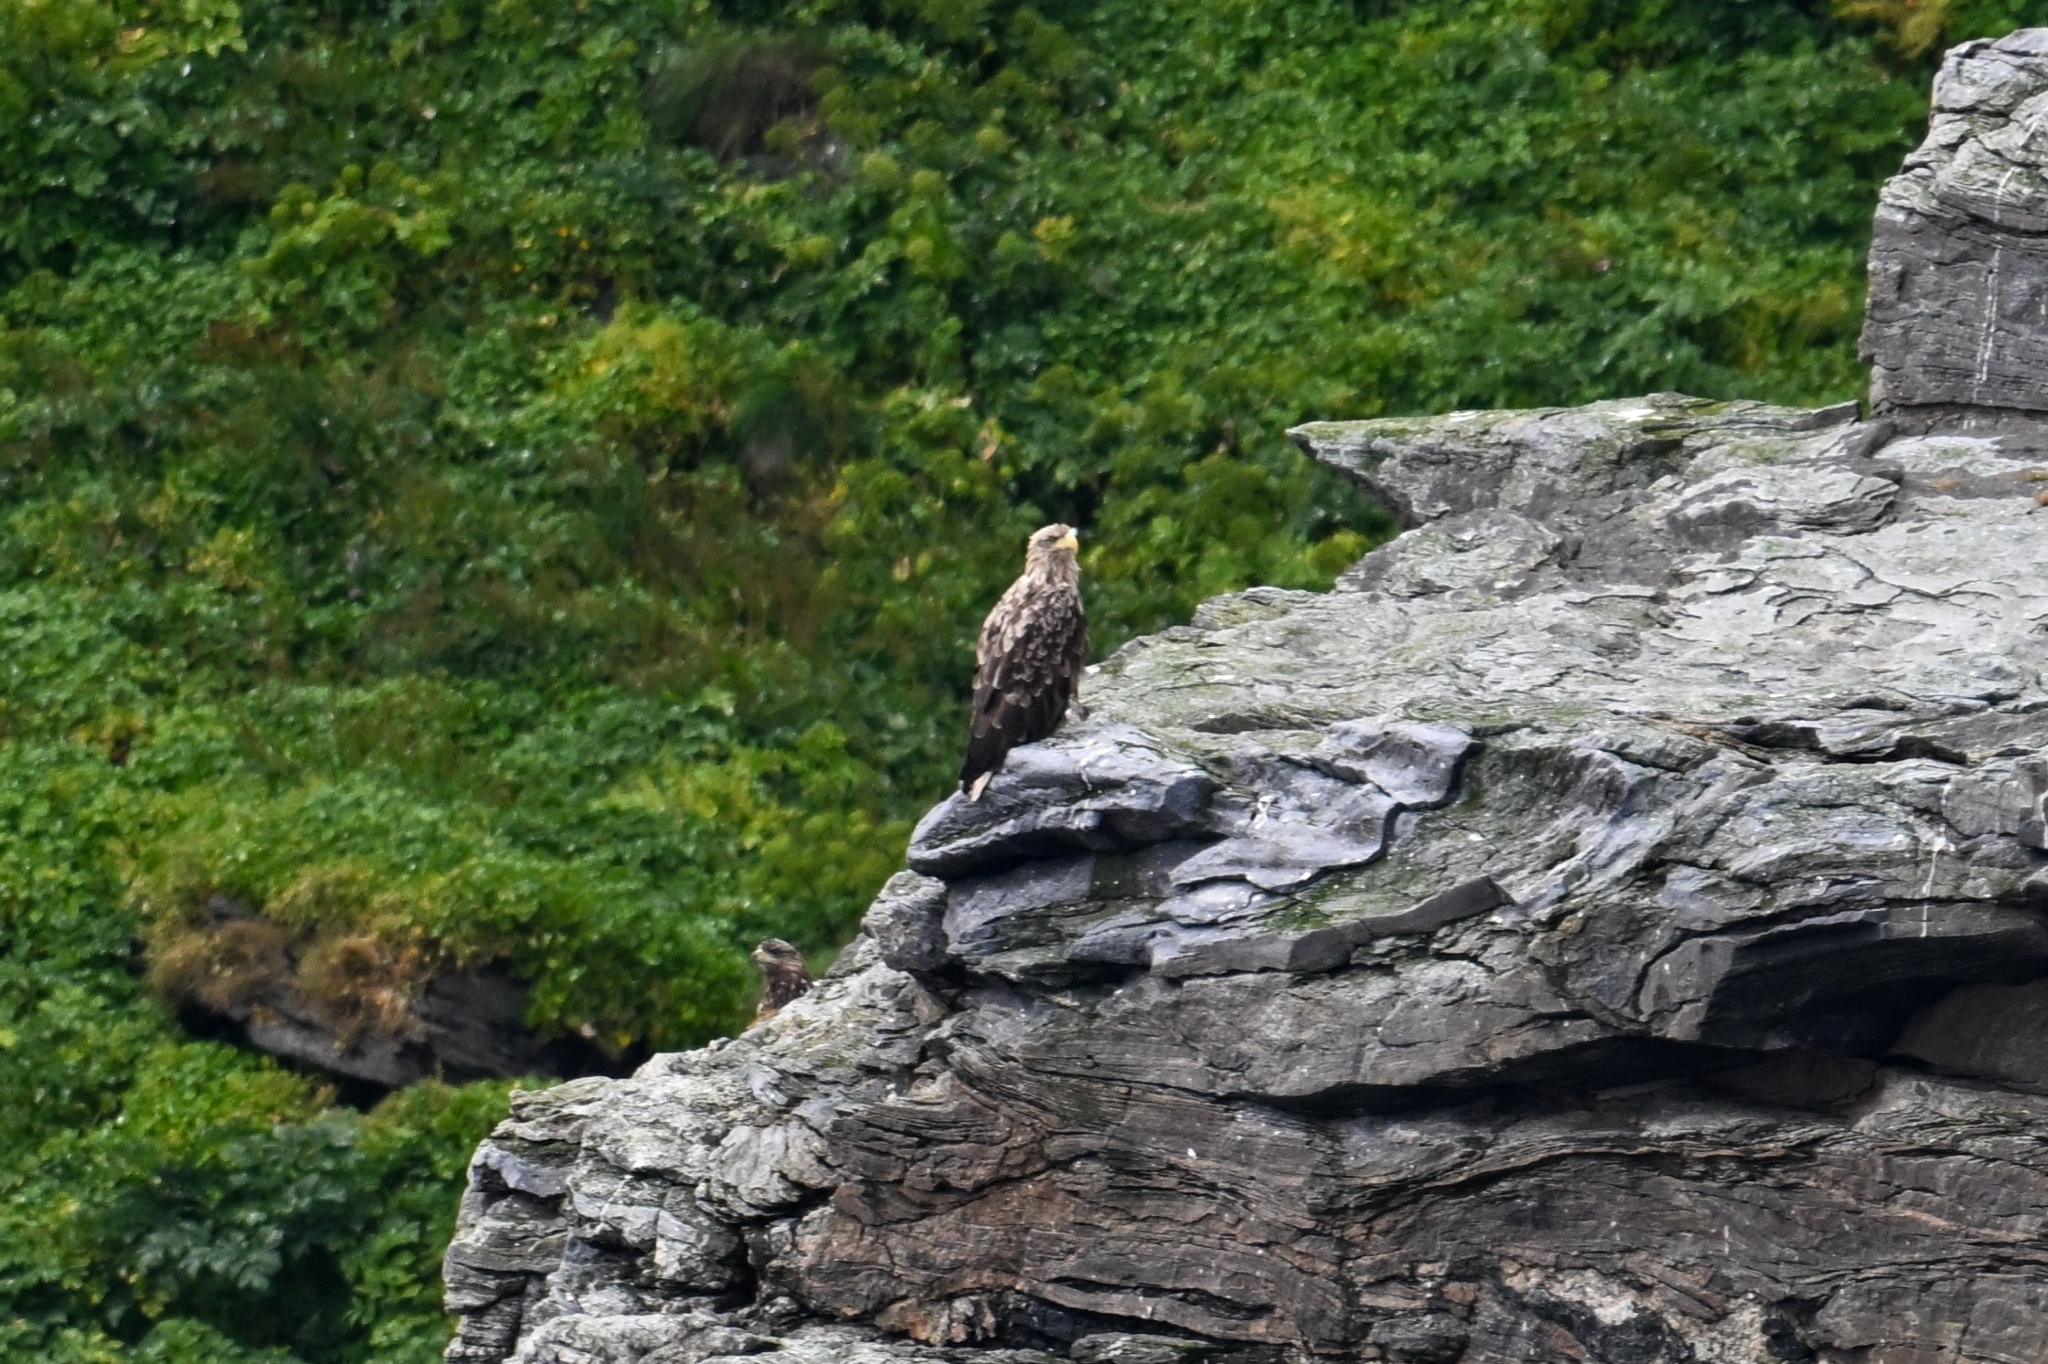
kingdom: Animalia
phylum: Chordata
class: Aves
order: Accipitriformes
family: Accipitridae
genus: Haliaeetus
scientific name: Haliaeetus albicilla
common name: White-tailed eagle
